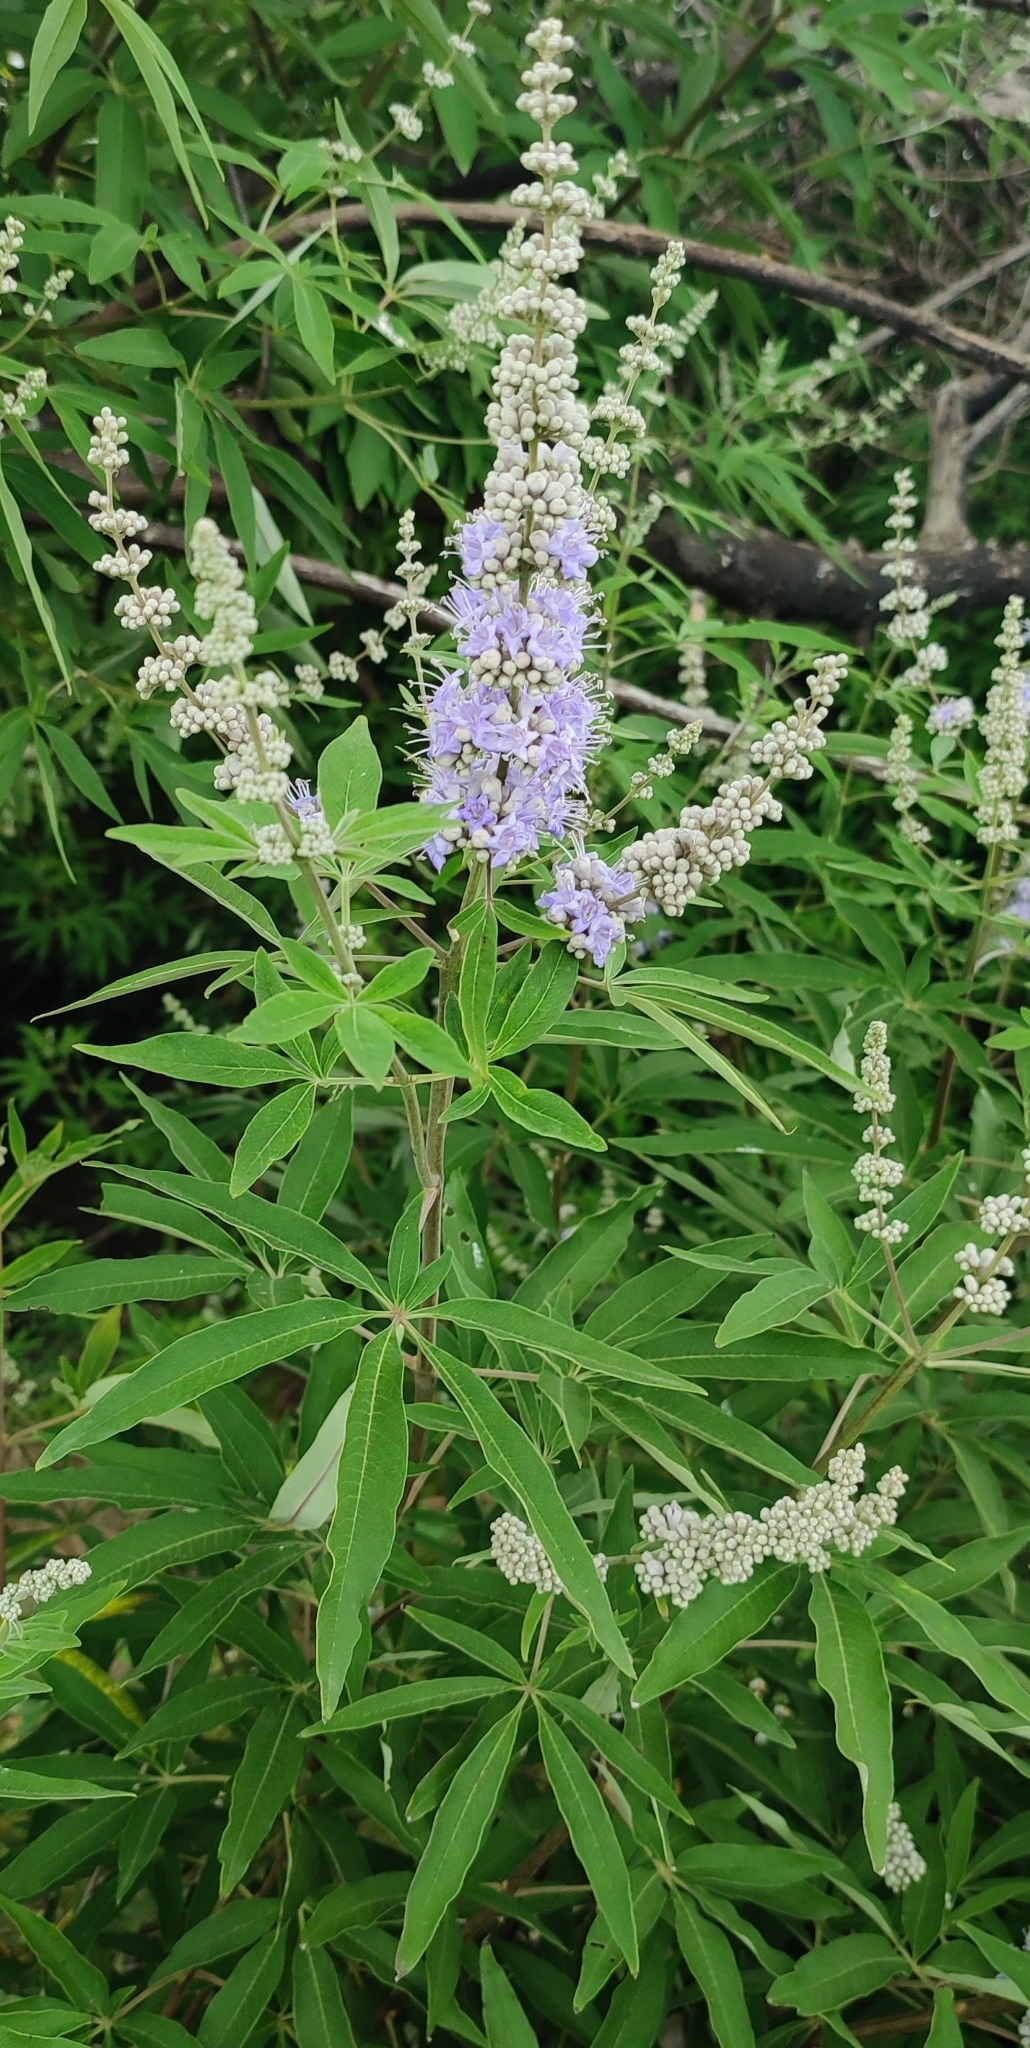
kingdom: Plantae
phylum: Tracheophyta
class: Magnoliopsida
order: Lamiales
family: Lamiaceae
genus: Vitex
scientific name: Vitex agnus-castus
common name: Chasteberry
